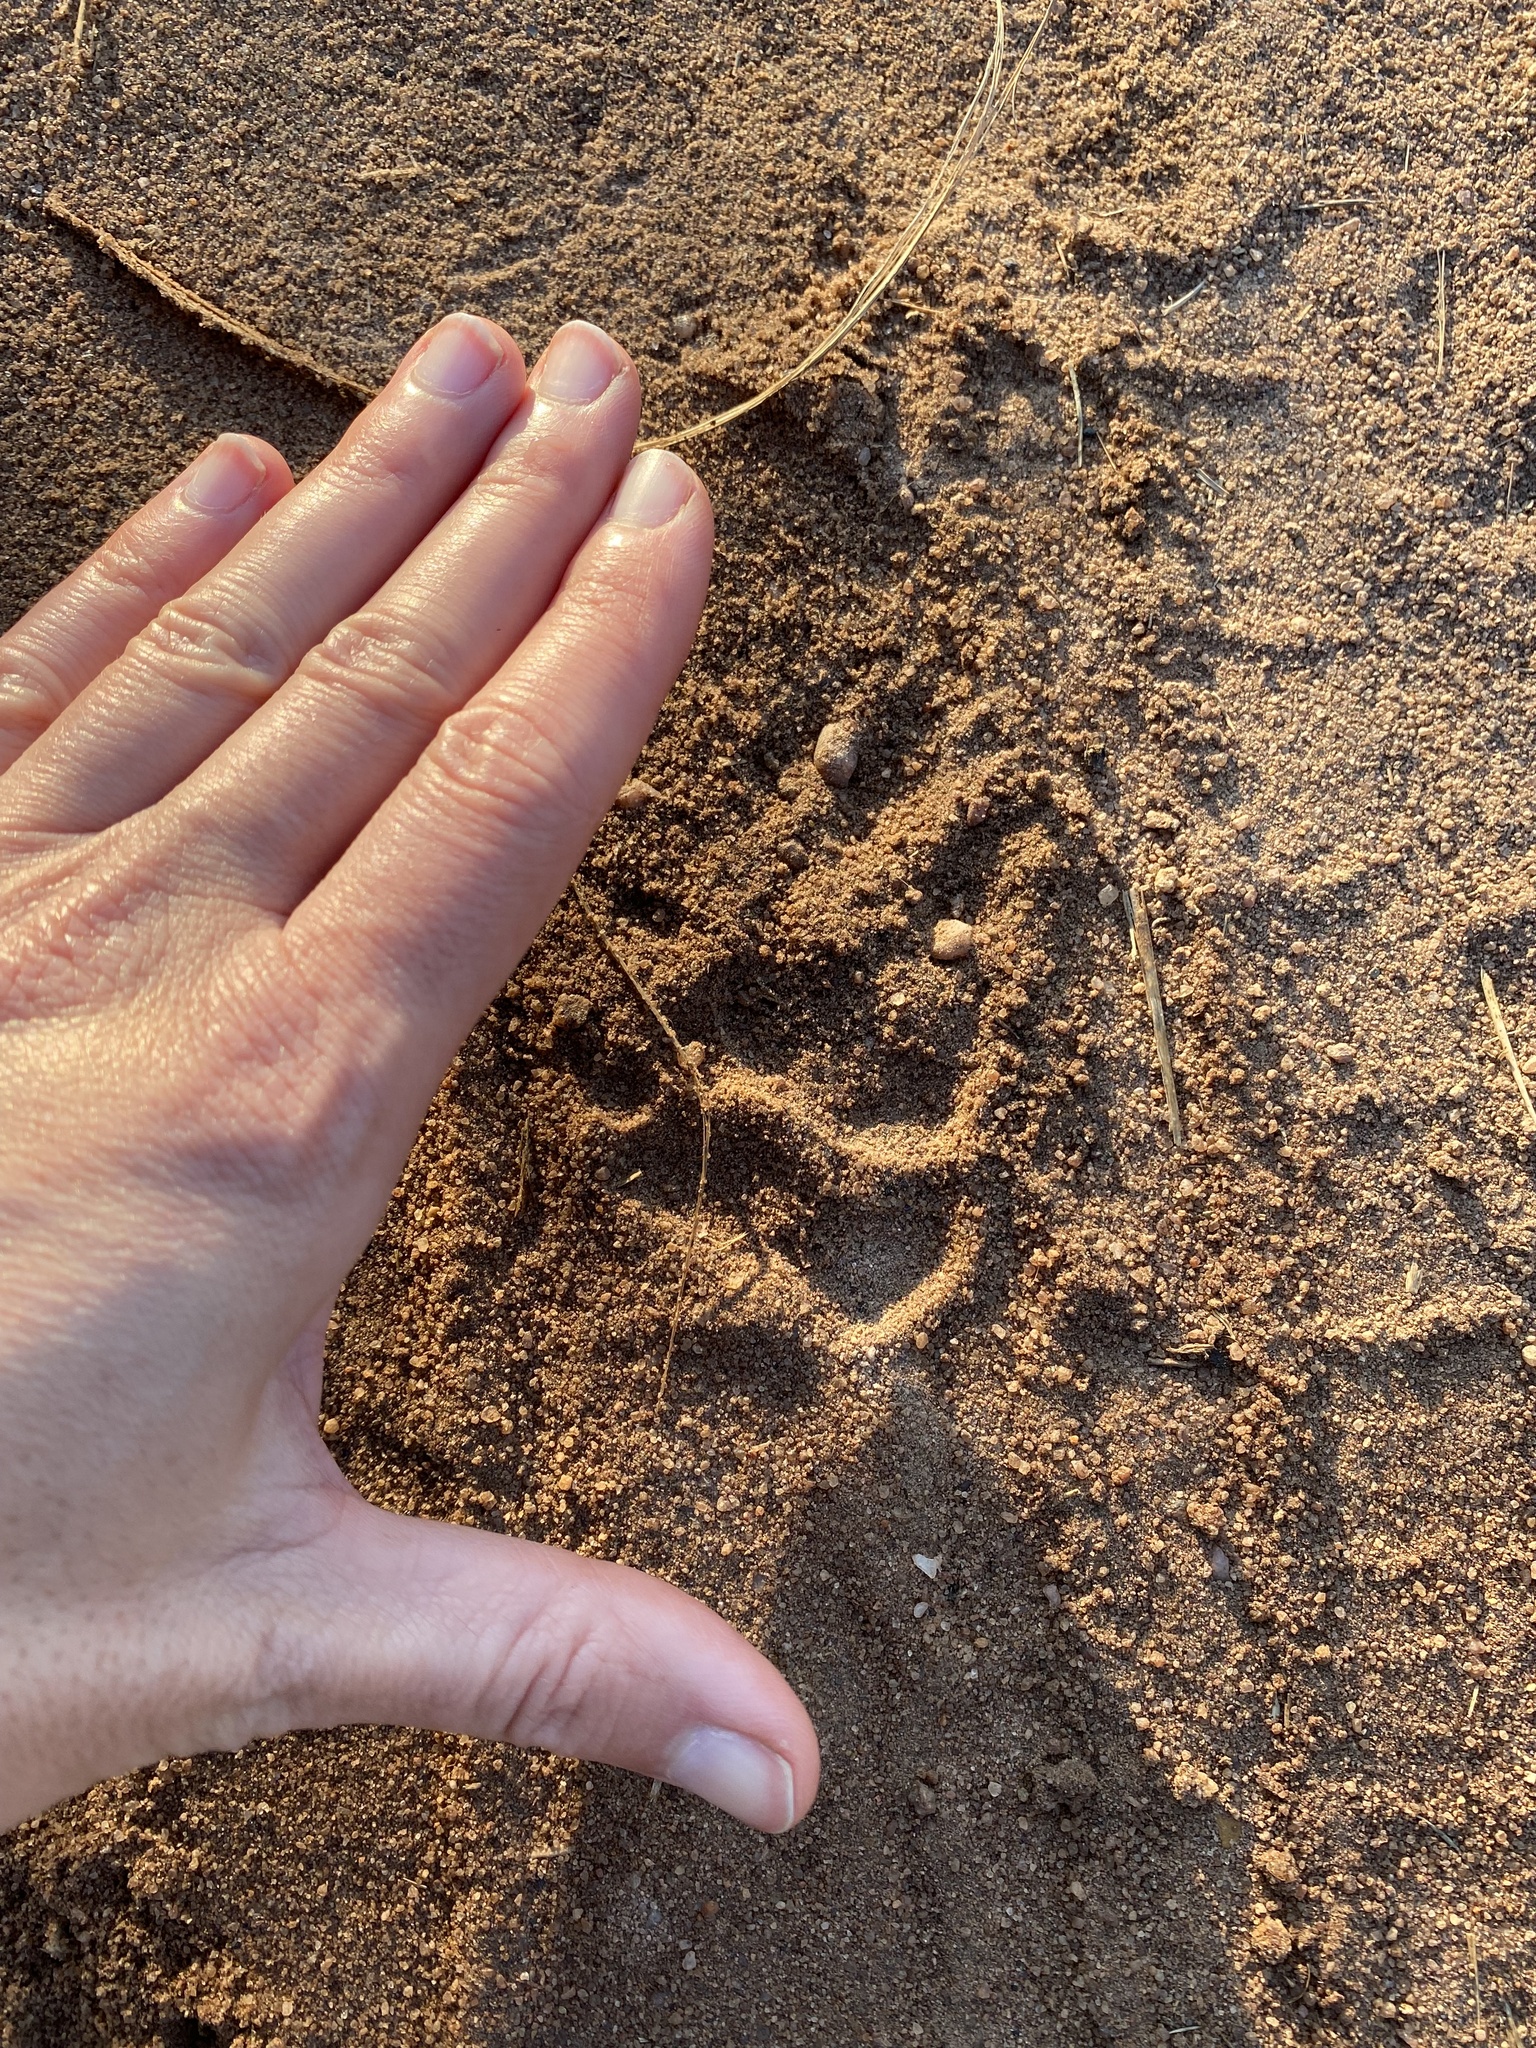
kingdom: Animalia
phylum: Chordata
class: Mammalia
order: Rodentia
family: Hystricidae
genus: Hystrix
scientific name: Hystrix africaeaustralis
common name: Cape porcupine
